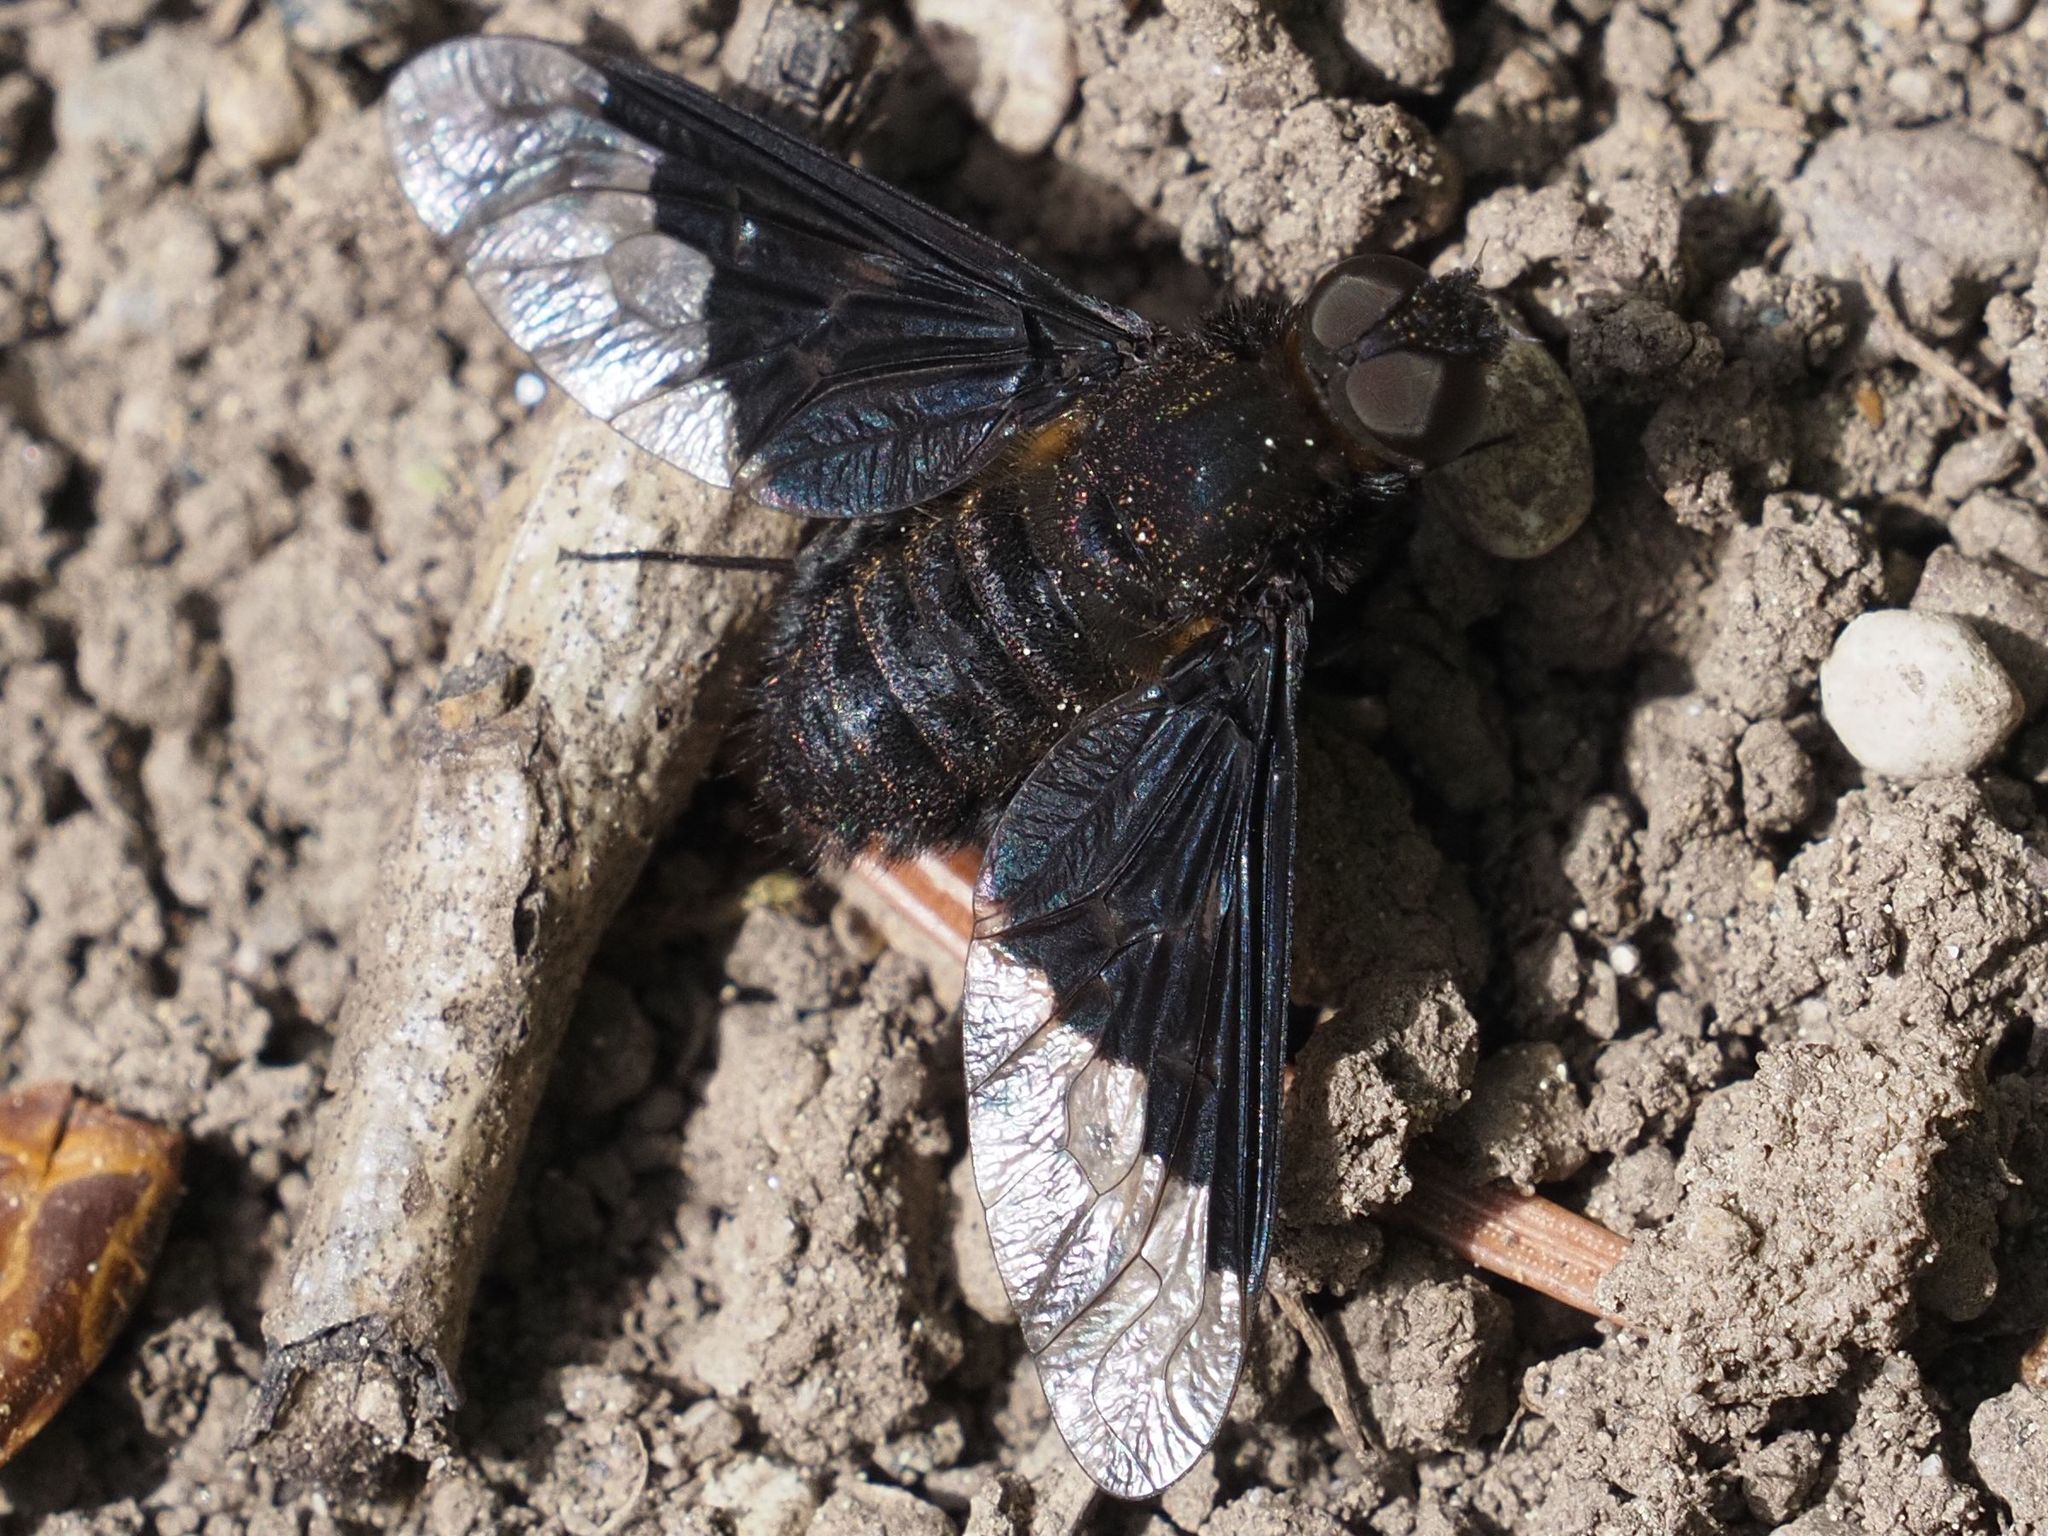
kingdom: Animalia
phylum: Arthropoda
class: Insecta
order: Diptera
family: Bombyliidae
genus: Hemipenthes
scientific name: Hemipenthes morio
